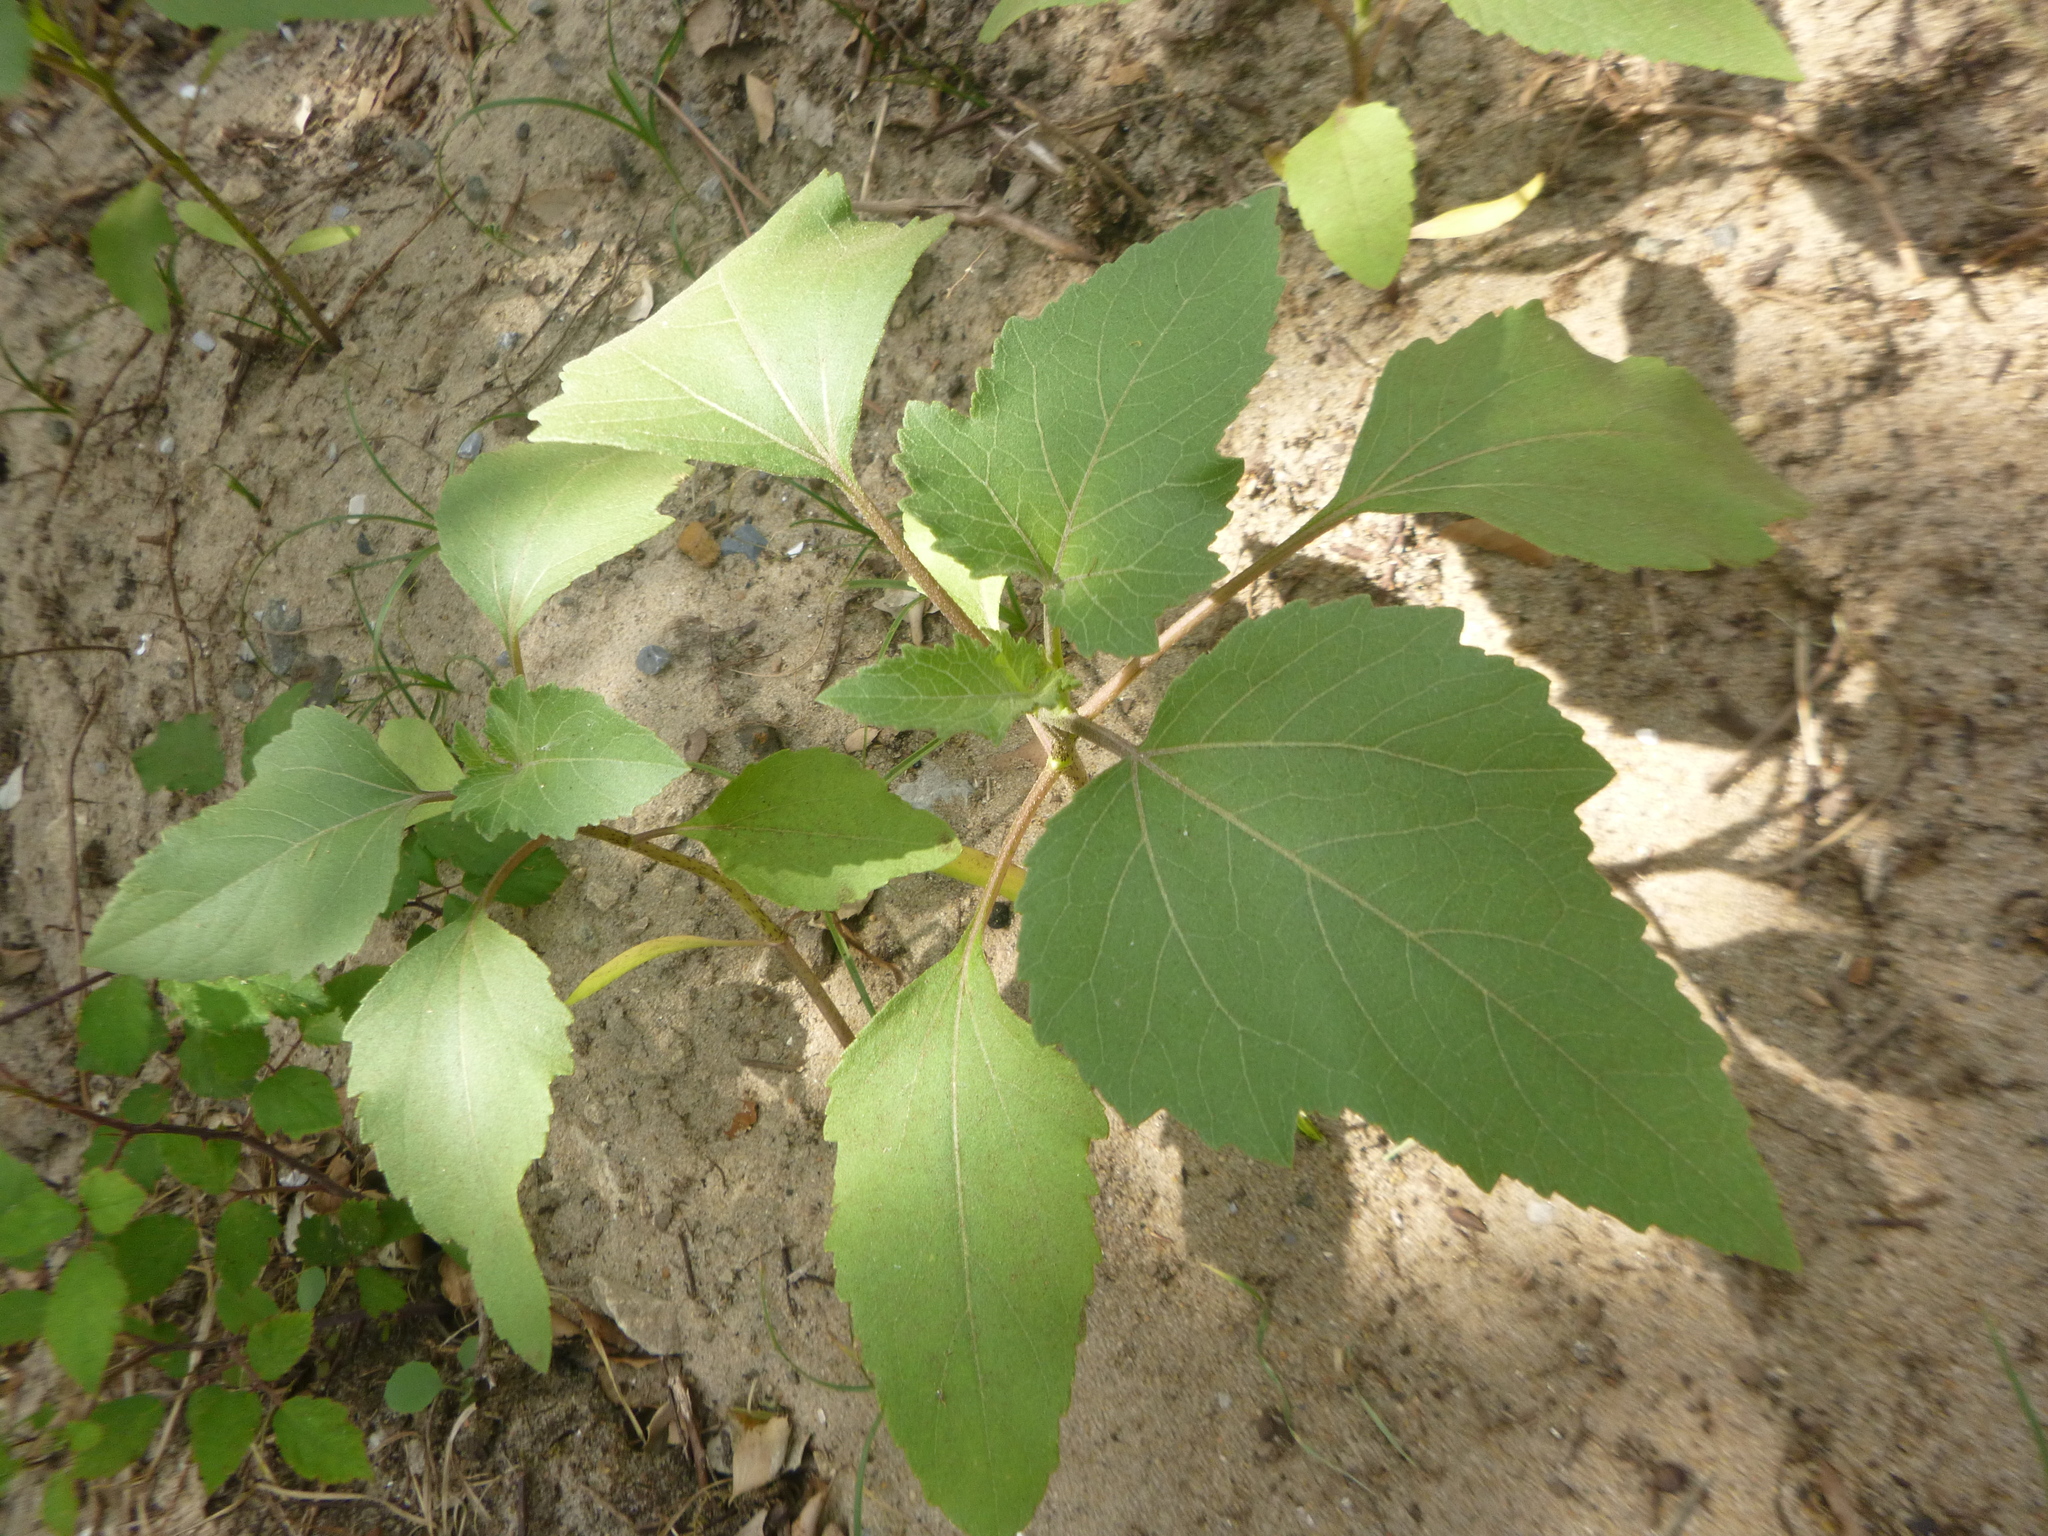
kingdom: Plantae
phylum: Tracheophyta
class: Magnoliopsida
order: Asterales
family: Asteraceae
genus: Xanthium
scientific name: Xanthium strumarium
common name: Rough cocklebur
